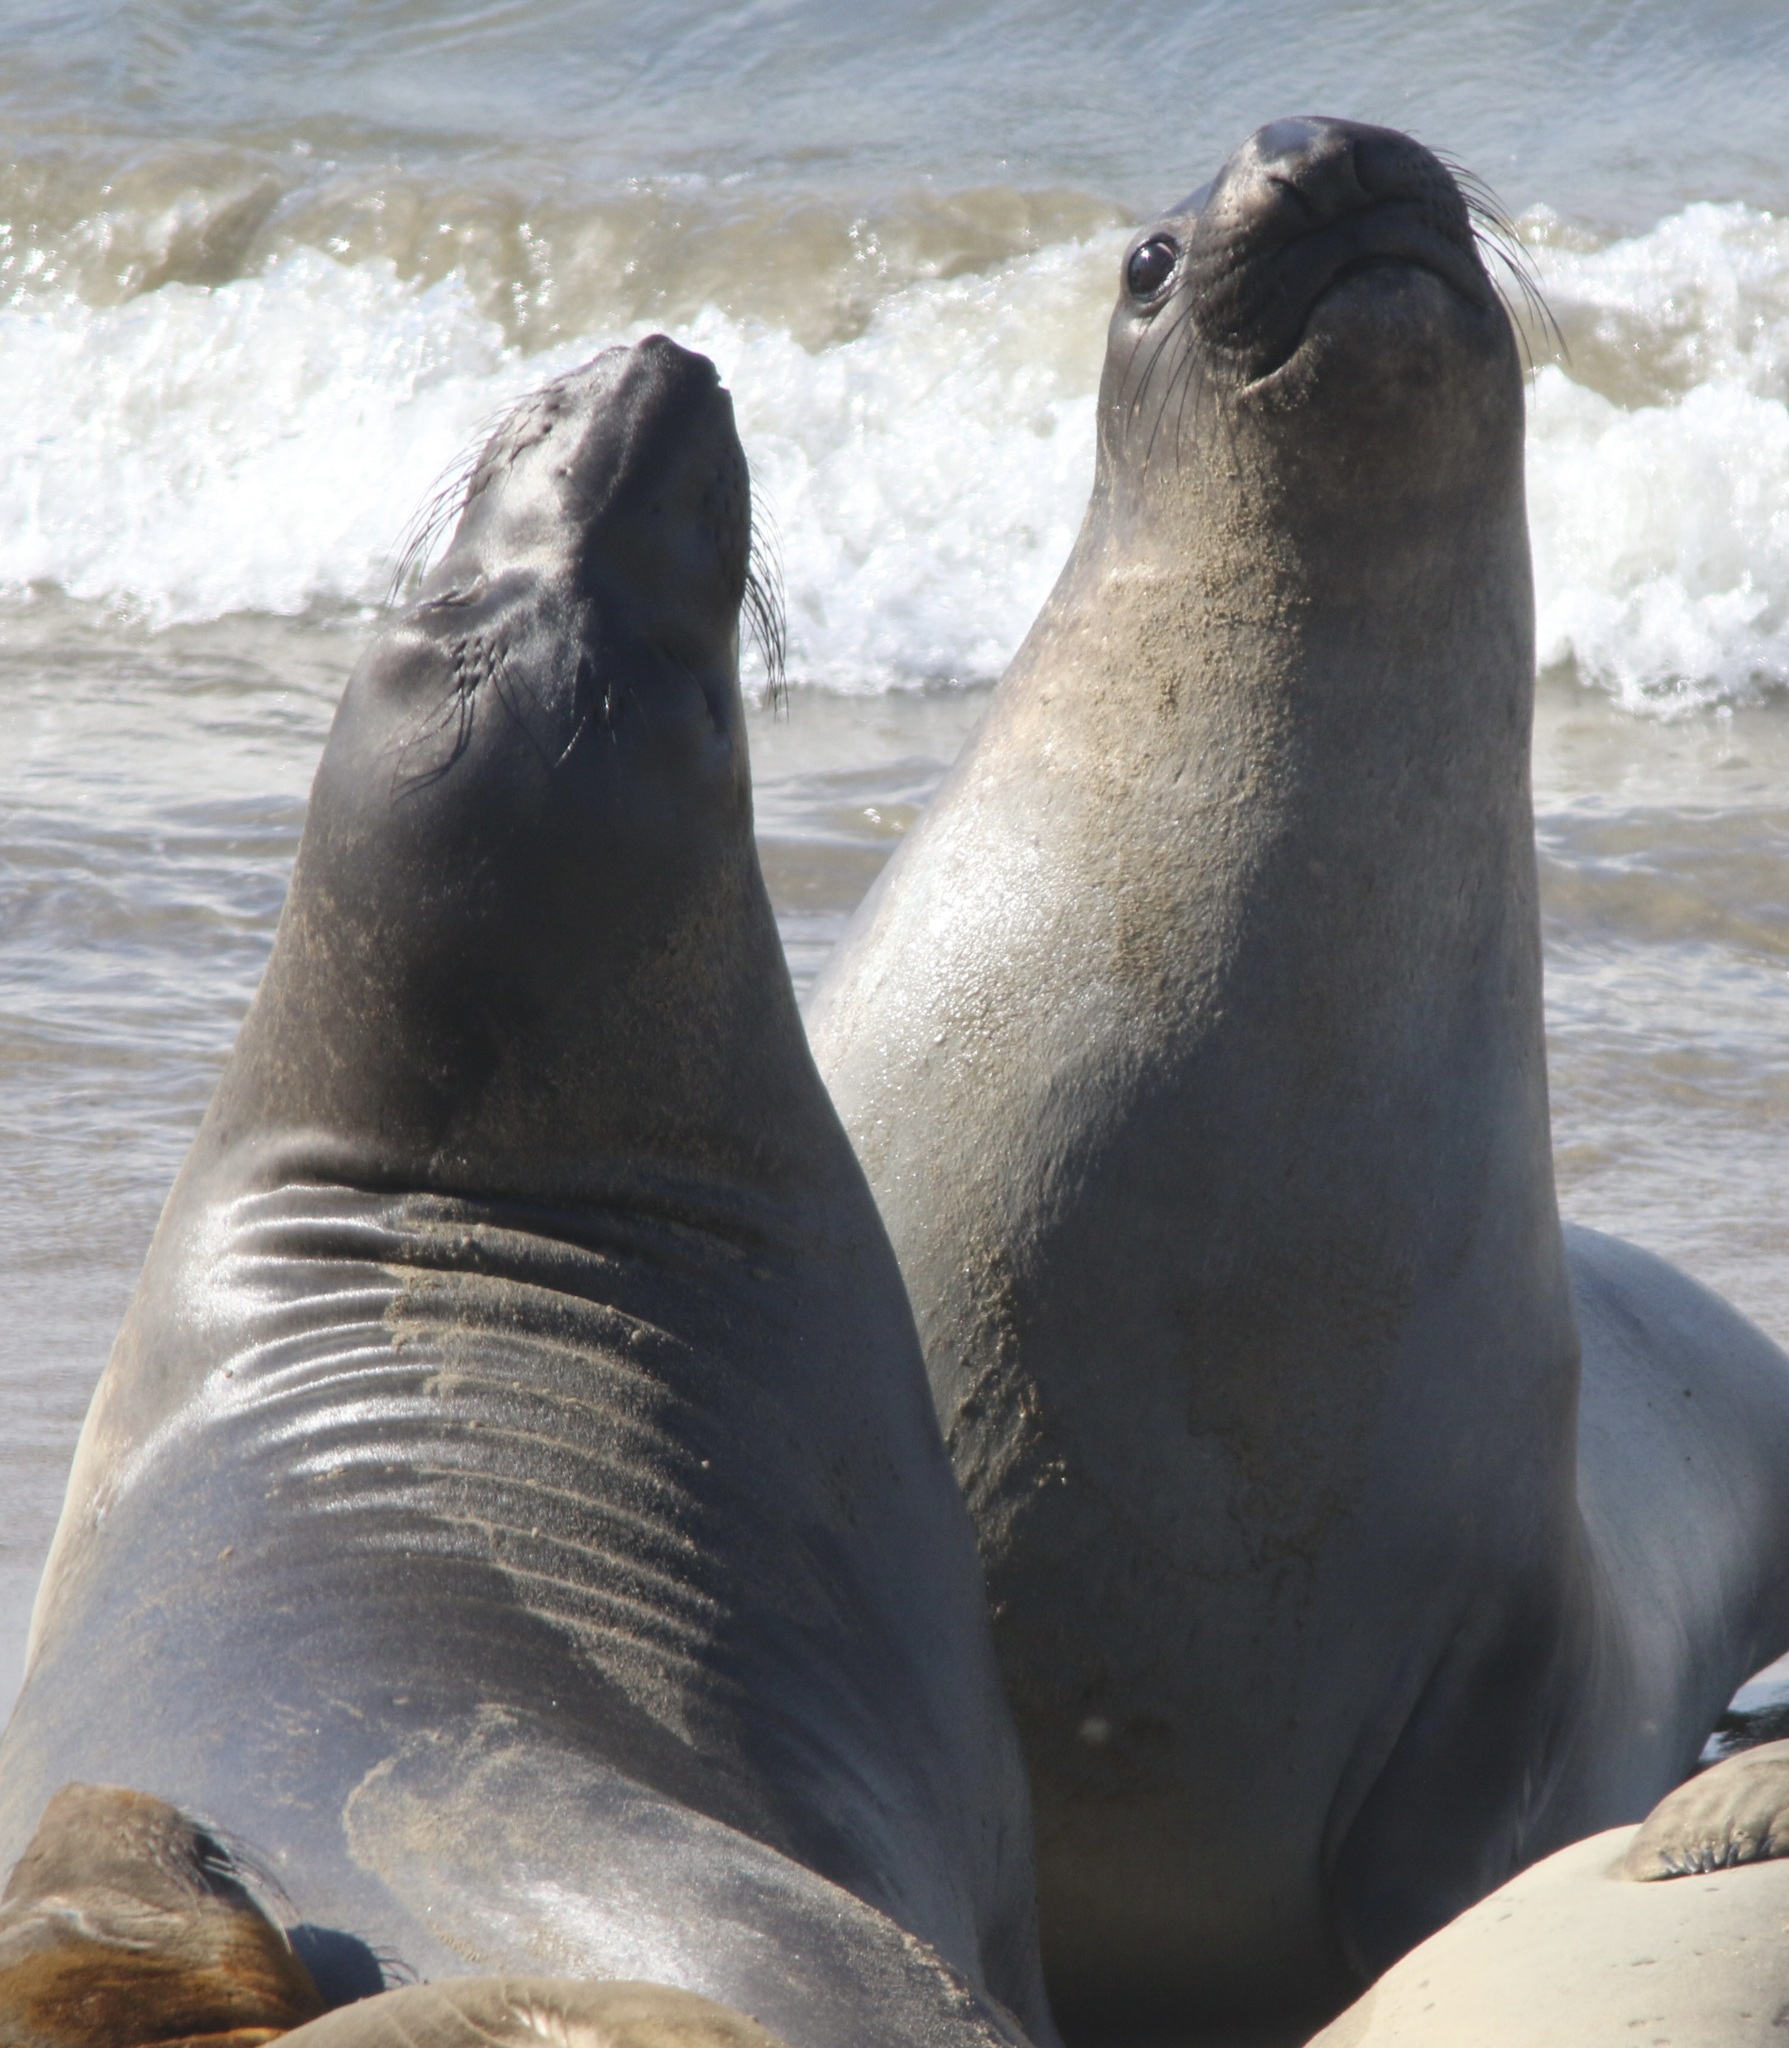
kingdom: Animalia
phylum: Chordata
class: Mammalia
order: Carnivora
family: Phocidae
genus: Mirounga
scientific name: Mirounga angustirostris
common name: Northern elephant seal
